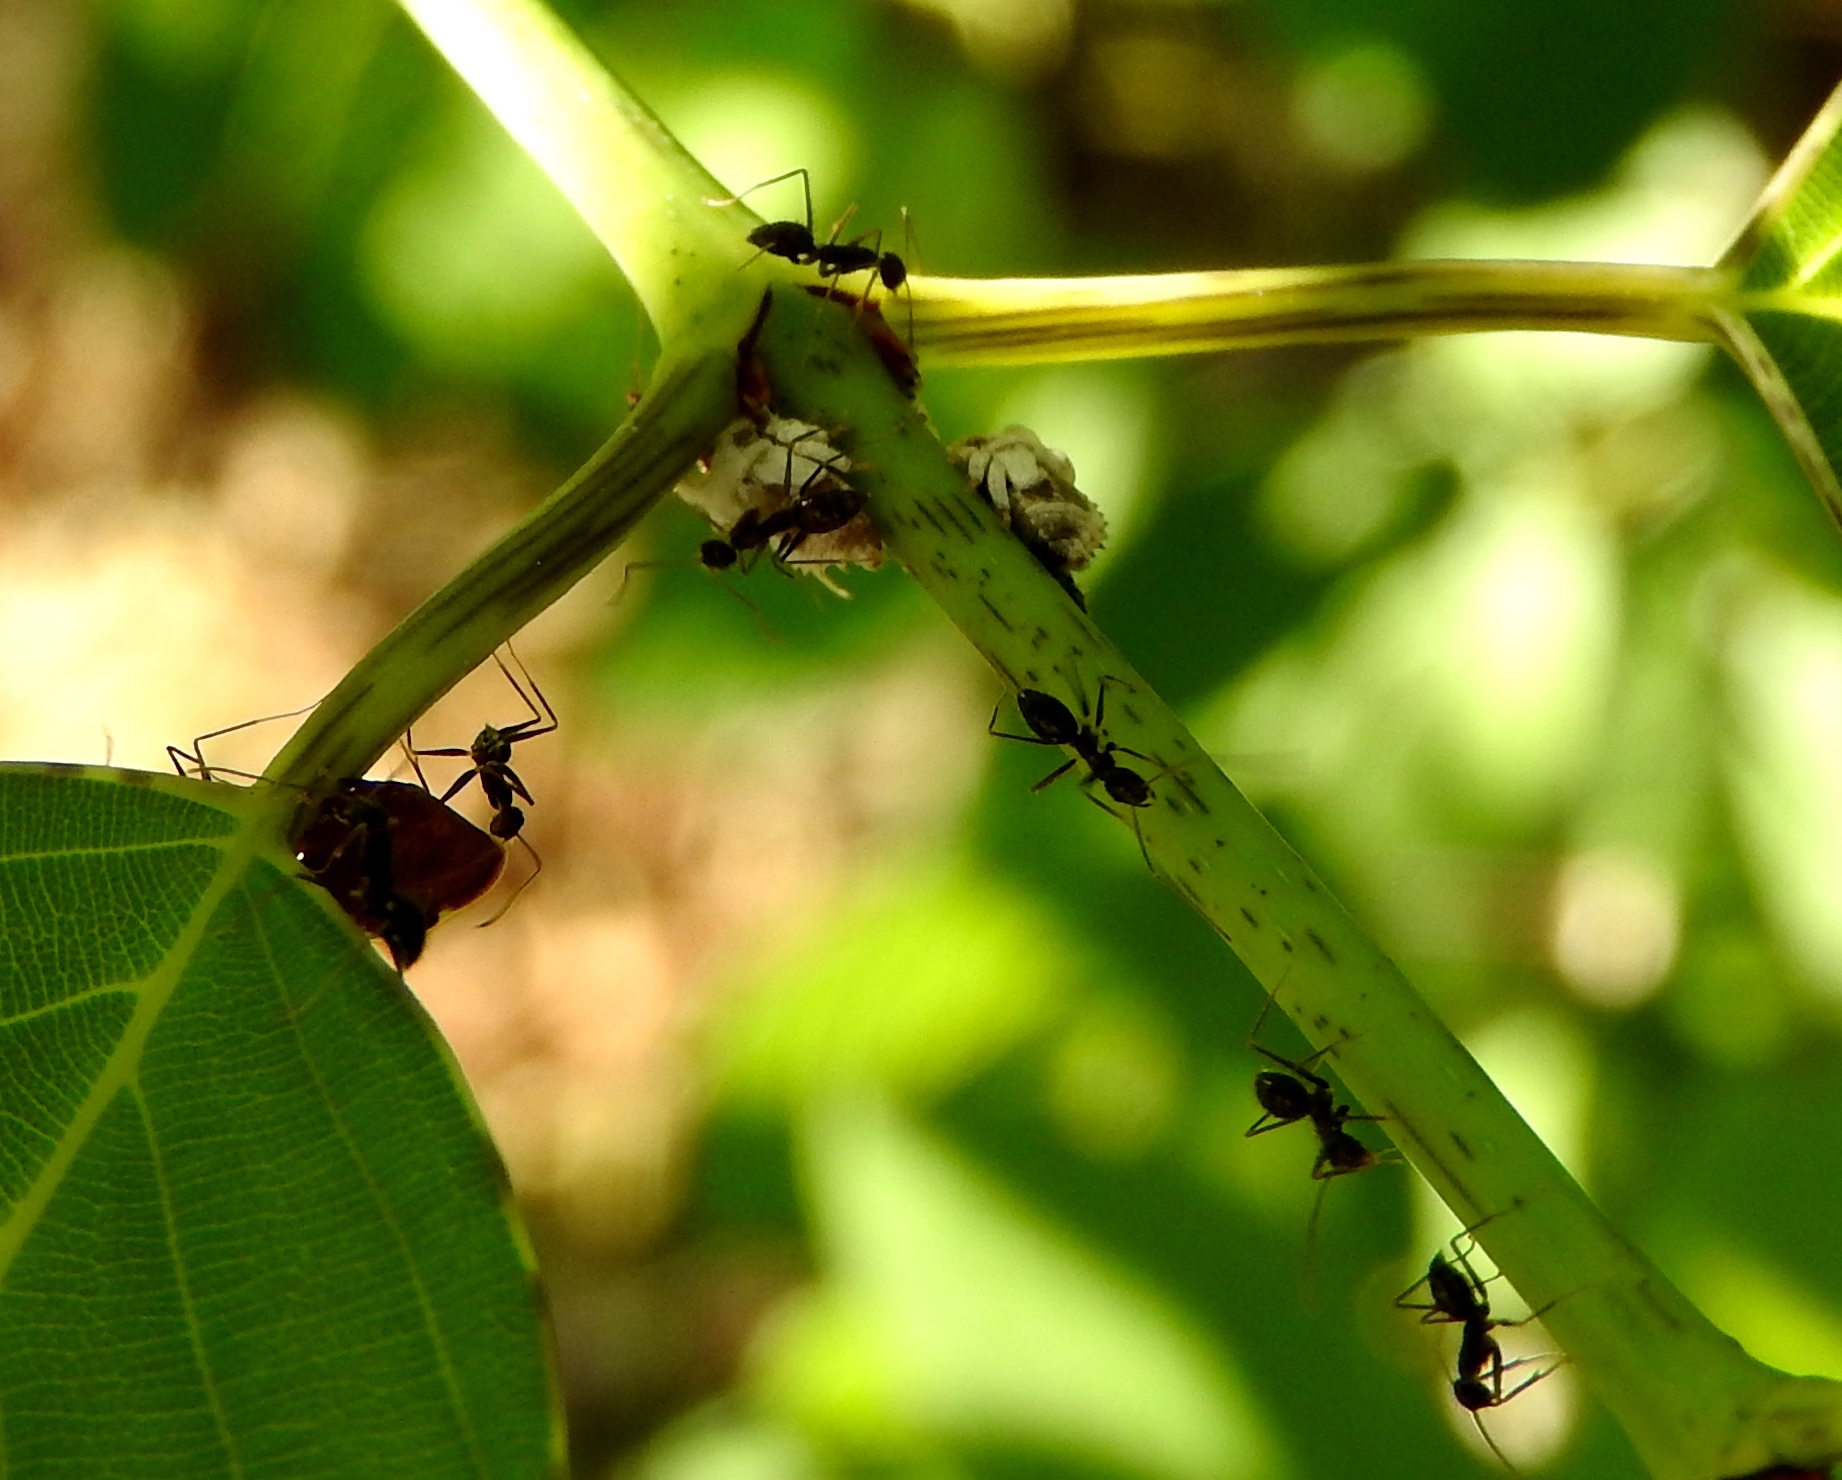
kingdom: Animalia
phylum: Arthropoda
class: Insecta
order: Hymenoptera
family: Formicidae
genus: Paratrechina
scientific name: Paratrechina longicornis
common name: Longhorned crazy ant
